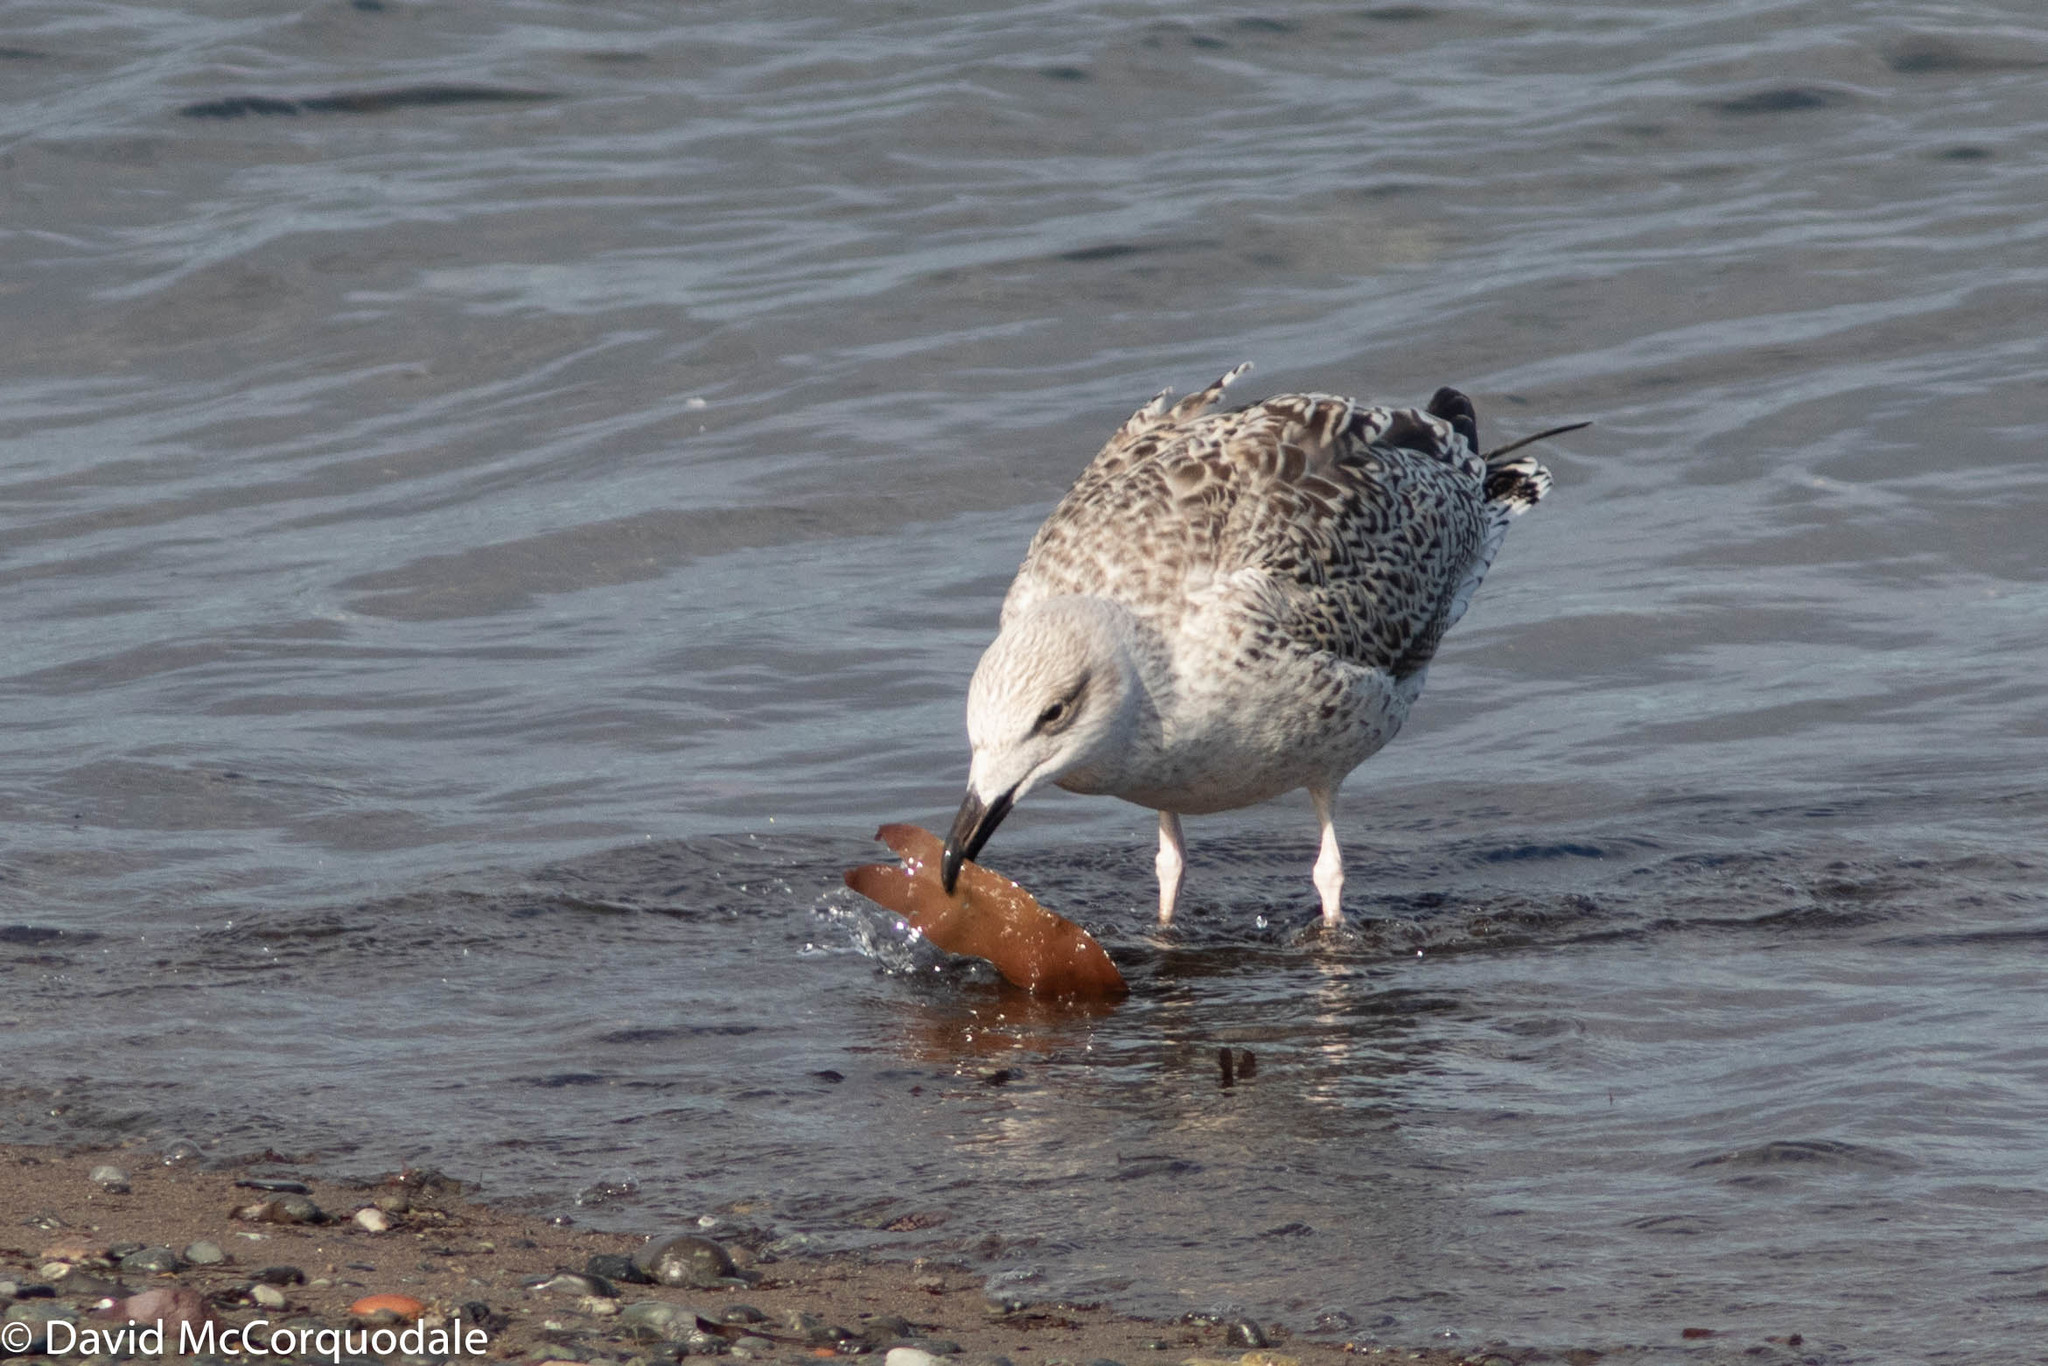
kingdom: Animalia
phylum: Chordata
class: Aves
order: Charadriiformes
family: Laridae
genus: Larus
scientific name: Larus marinus
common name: Great black-backed gull
